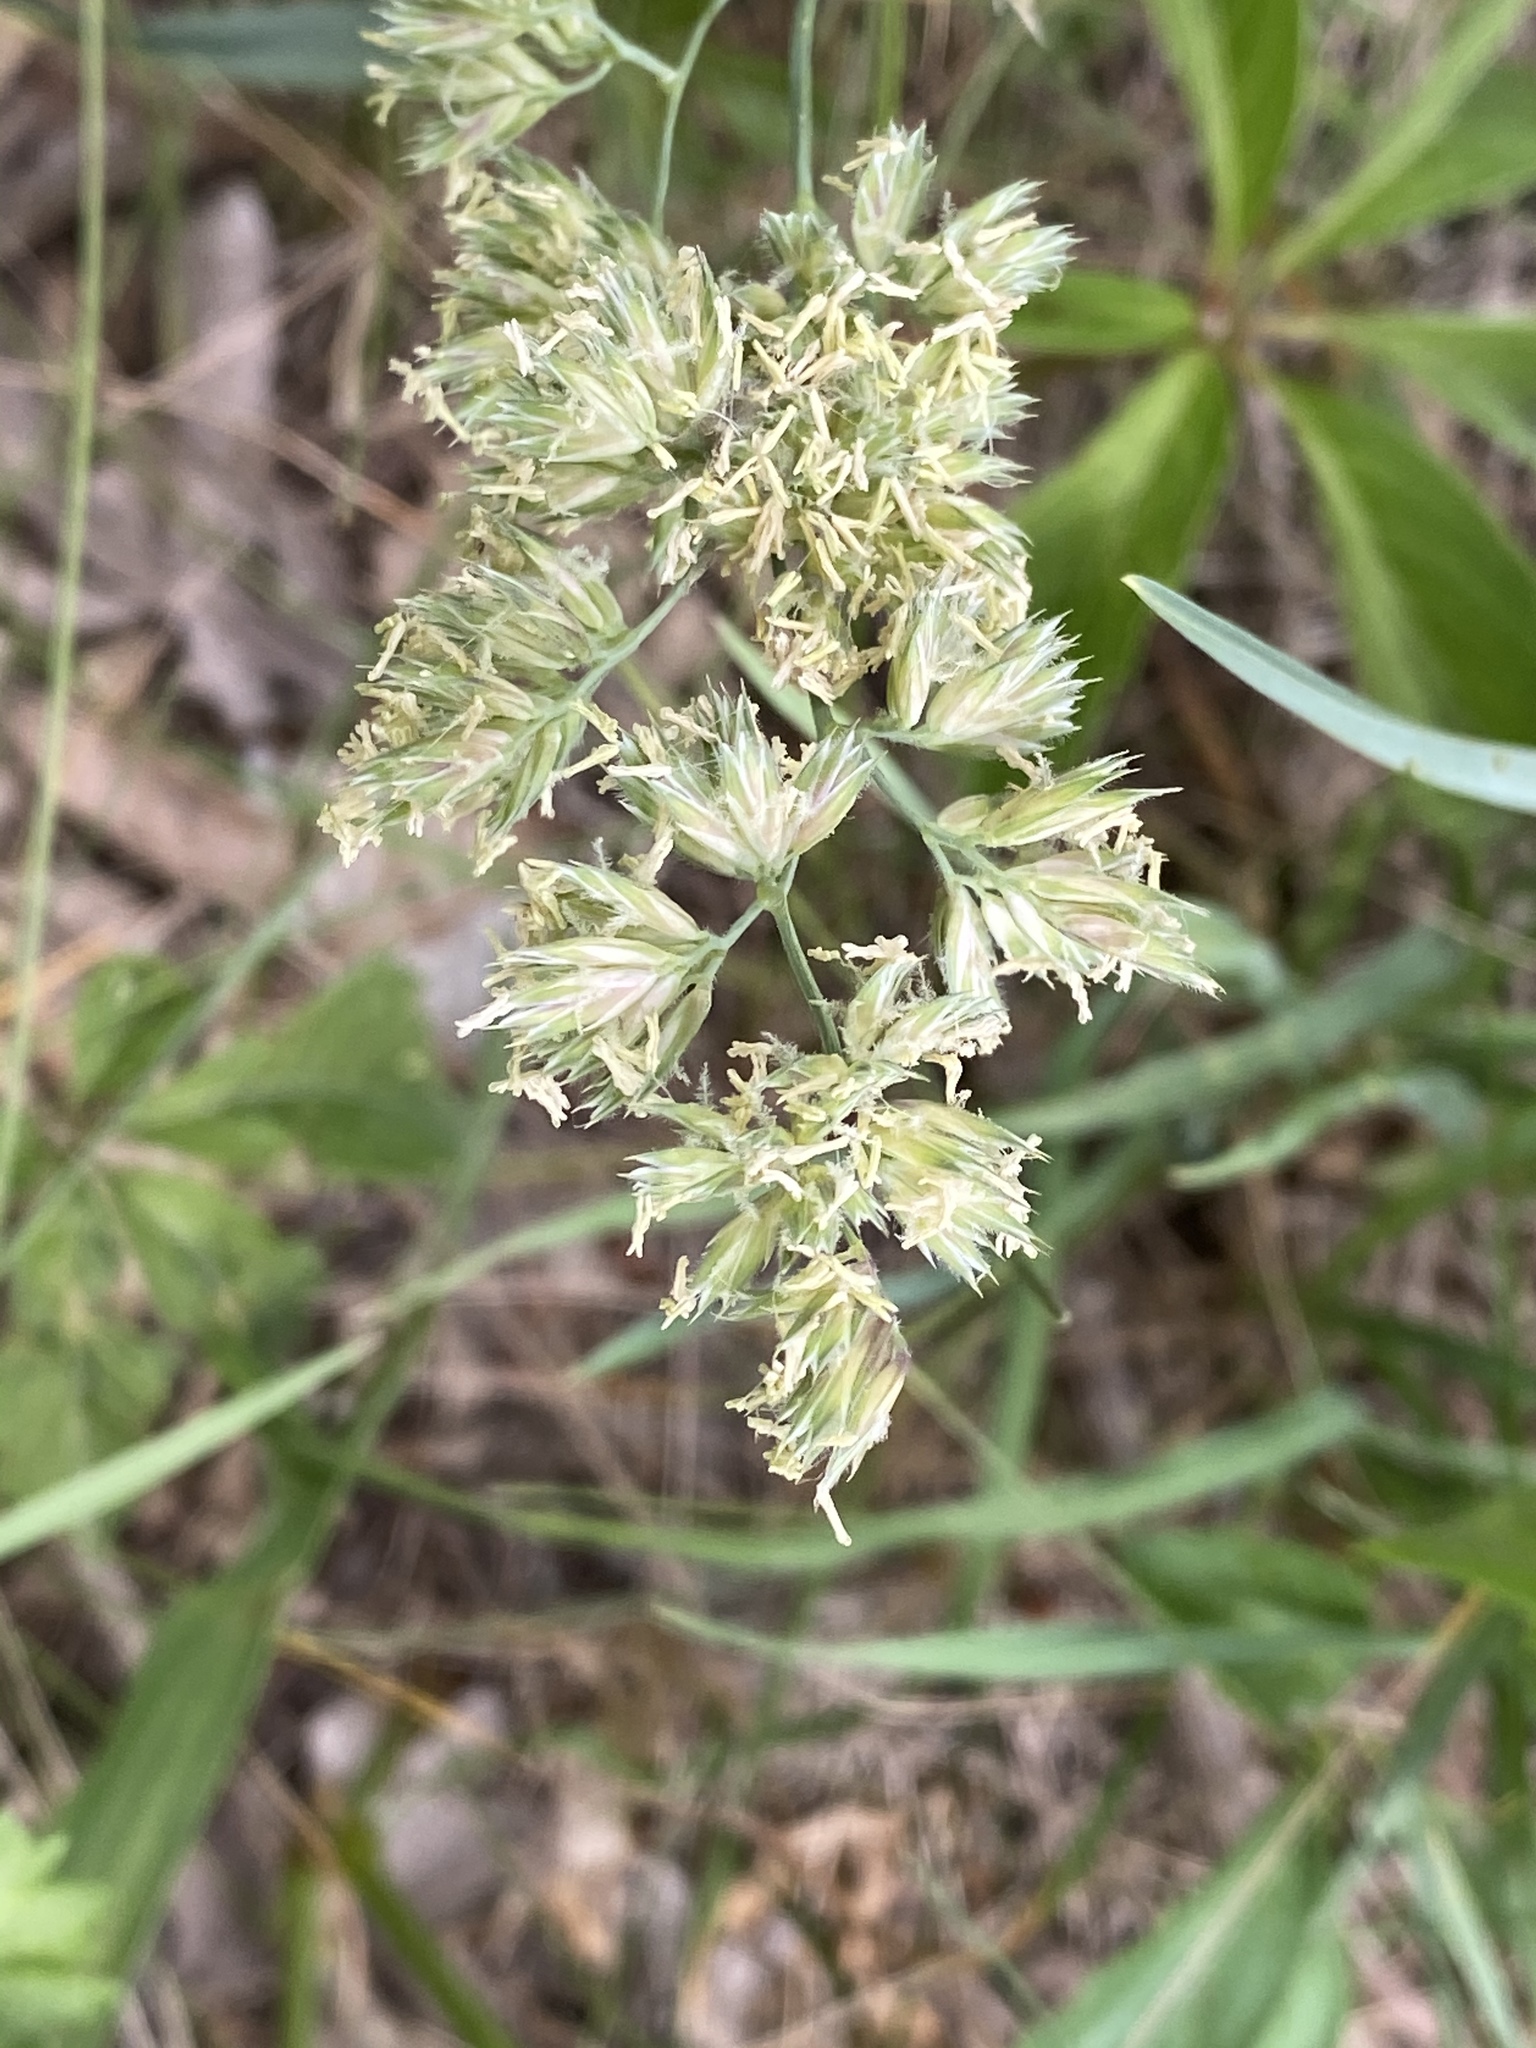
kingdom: Plantae
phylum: Tracheophyta
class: Liliopsida
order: Poales
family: Poaceae
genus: Dactylis
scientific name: Dactylis glomerata
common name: Orchardgrass
